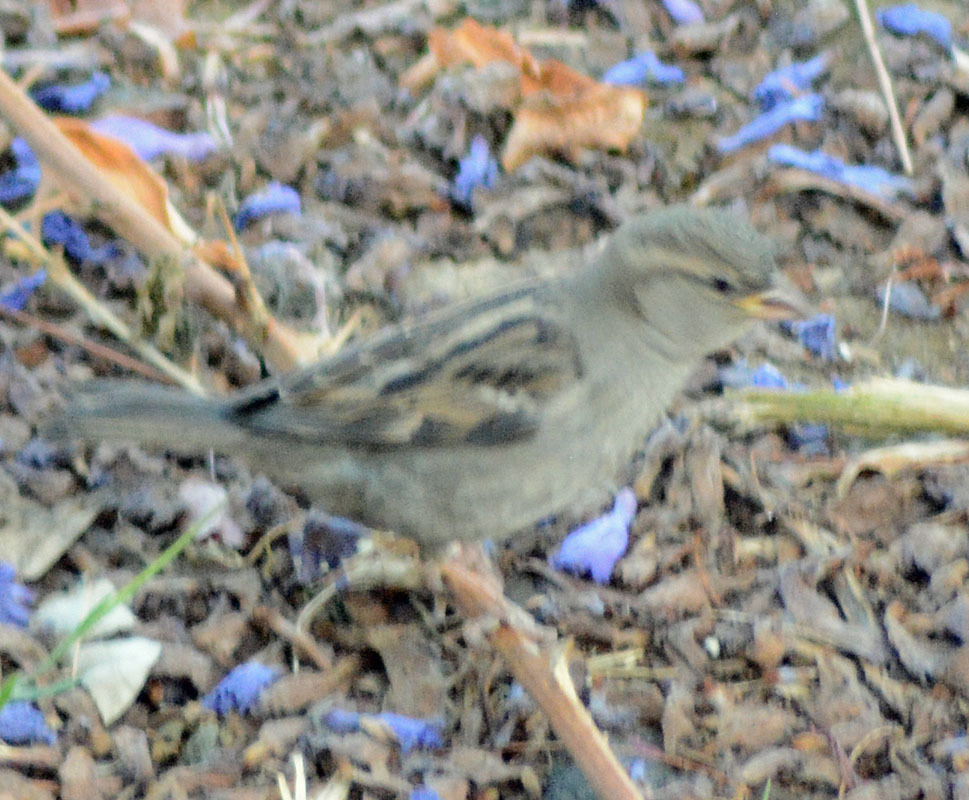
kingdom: Animalia
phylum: Chordata
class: Aves
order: Passeriformes
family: Passeridae
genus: Passer
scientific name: Passer domesticus
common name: House sparrow
